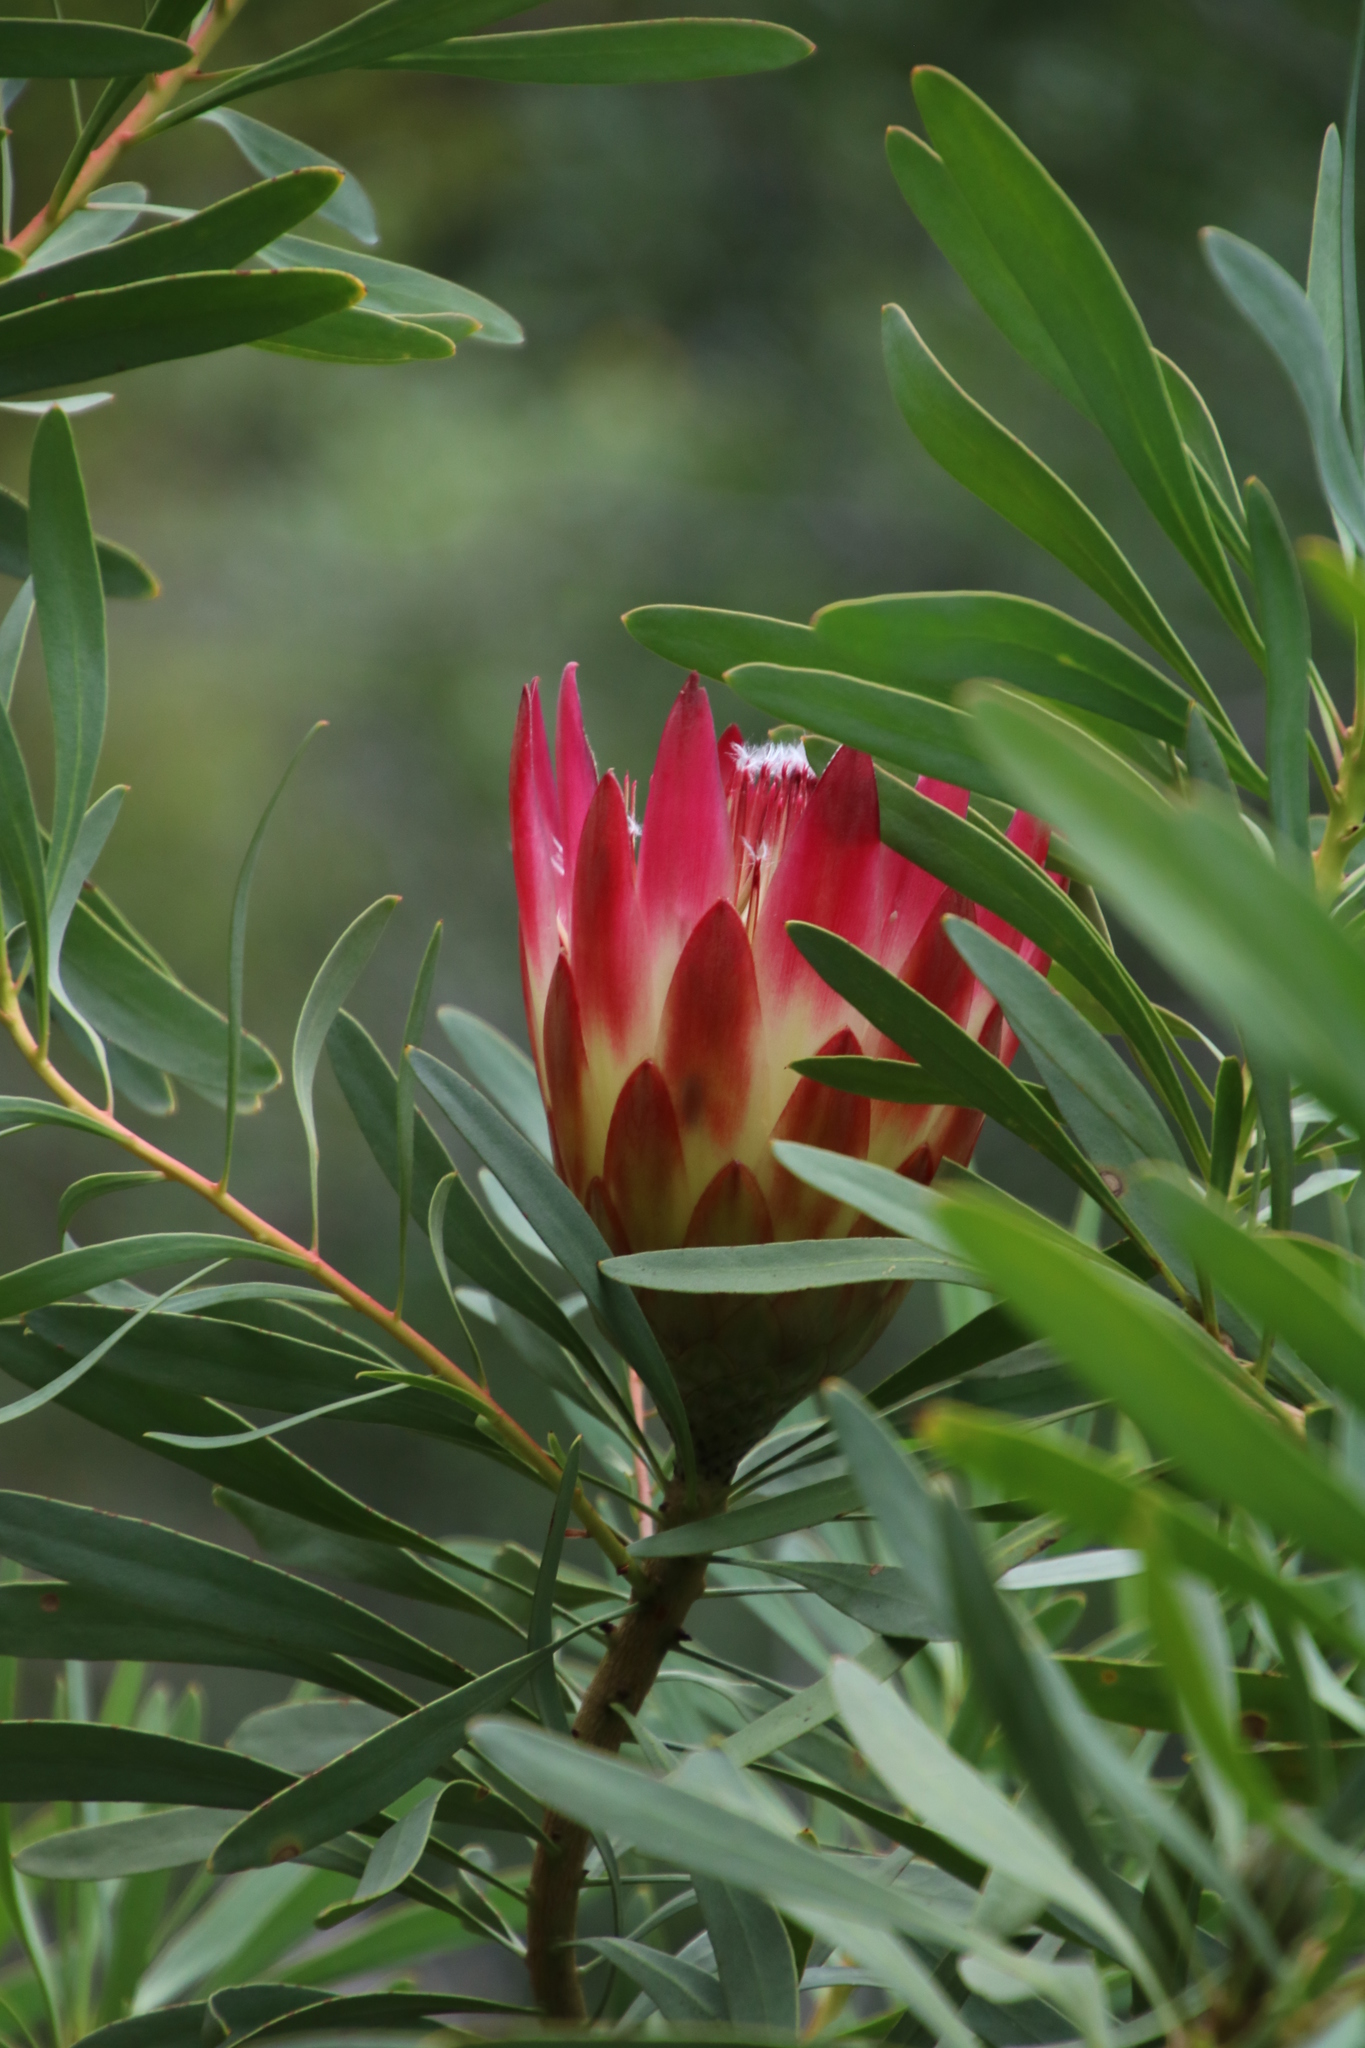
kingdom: Plantae
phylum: Tracheophyta
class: Magnoliopsida
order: Proteales
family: Proteaceae
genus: Protea
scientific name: Protea repens
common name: Sugarbush
